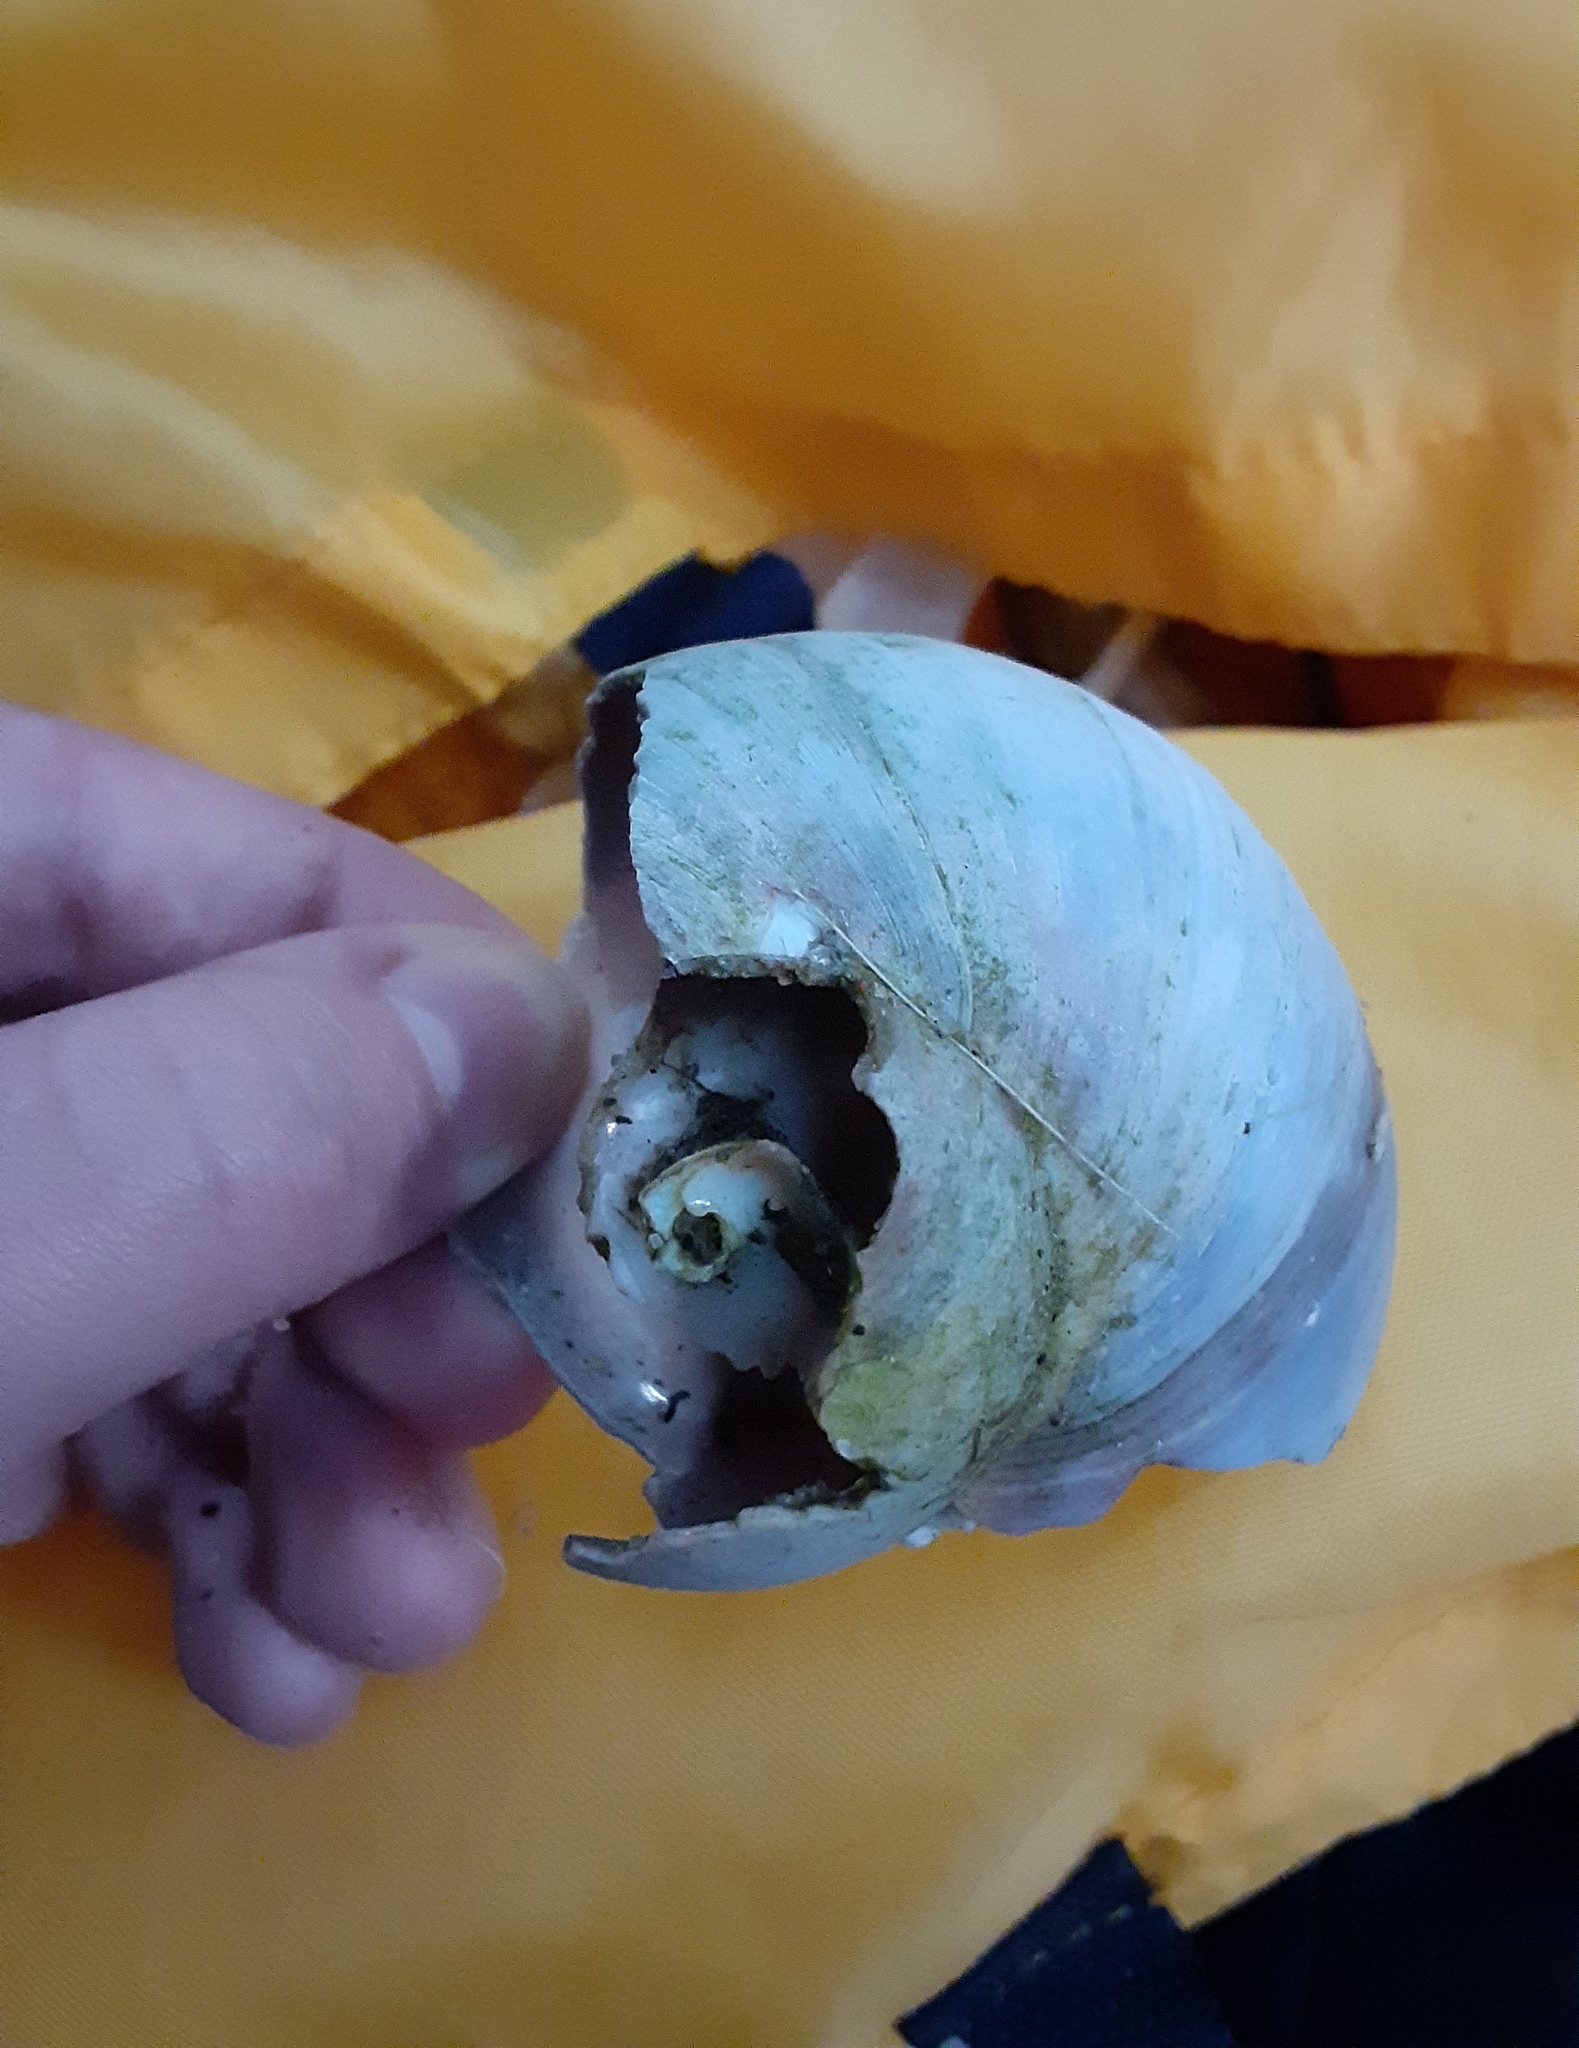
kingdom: Animalia
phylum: Mollusca
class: Gastropoda
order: Littorinimorpha
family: Naticidae
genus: Euspira
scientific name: Euspira heros
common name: Common northern moonsnail
